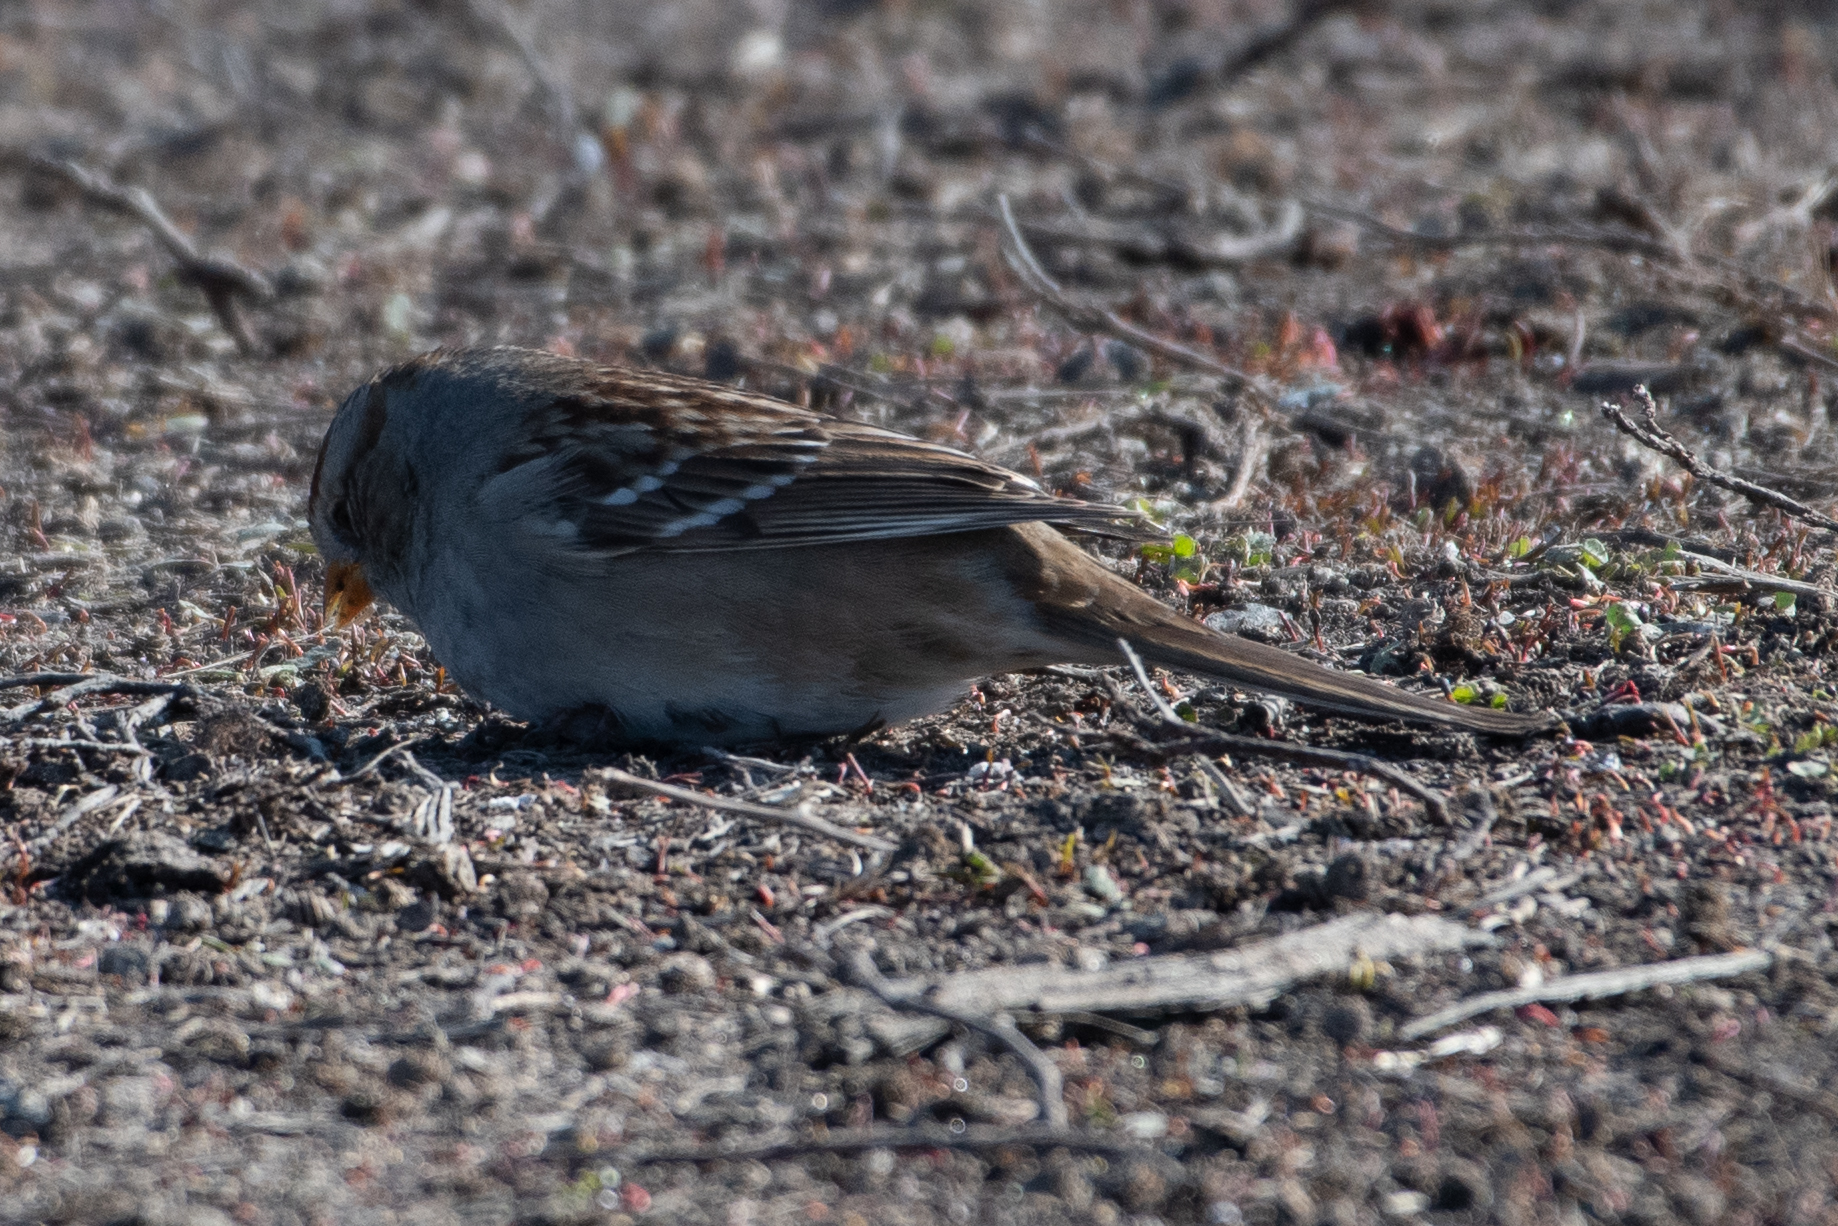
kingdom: Animalia
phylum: Chordata
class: Aves
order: Passeriformes
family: Passerellidae
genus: Zonotrichia
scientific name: Zonotrichia leucophrys
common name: White-crowned sparrow
